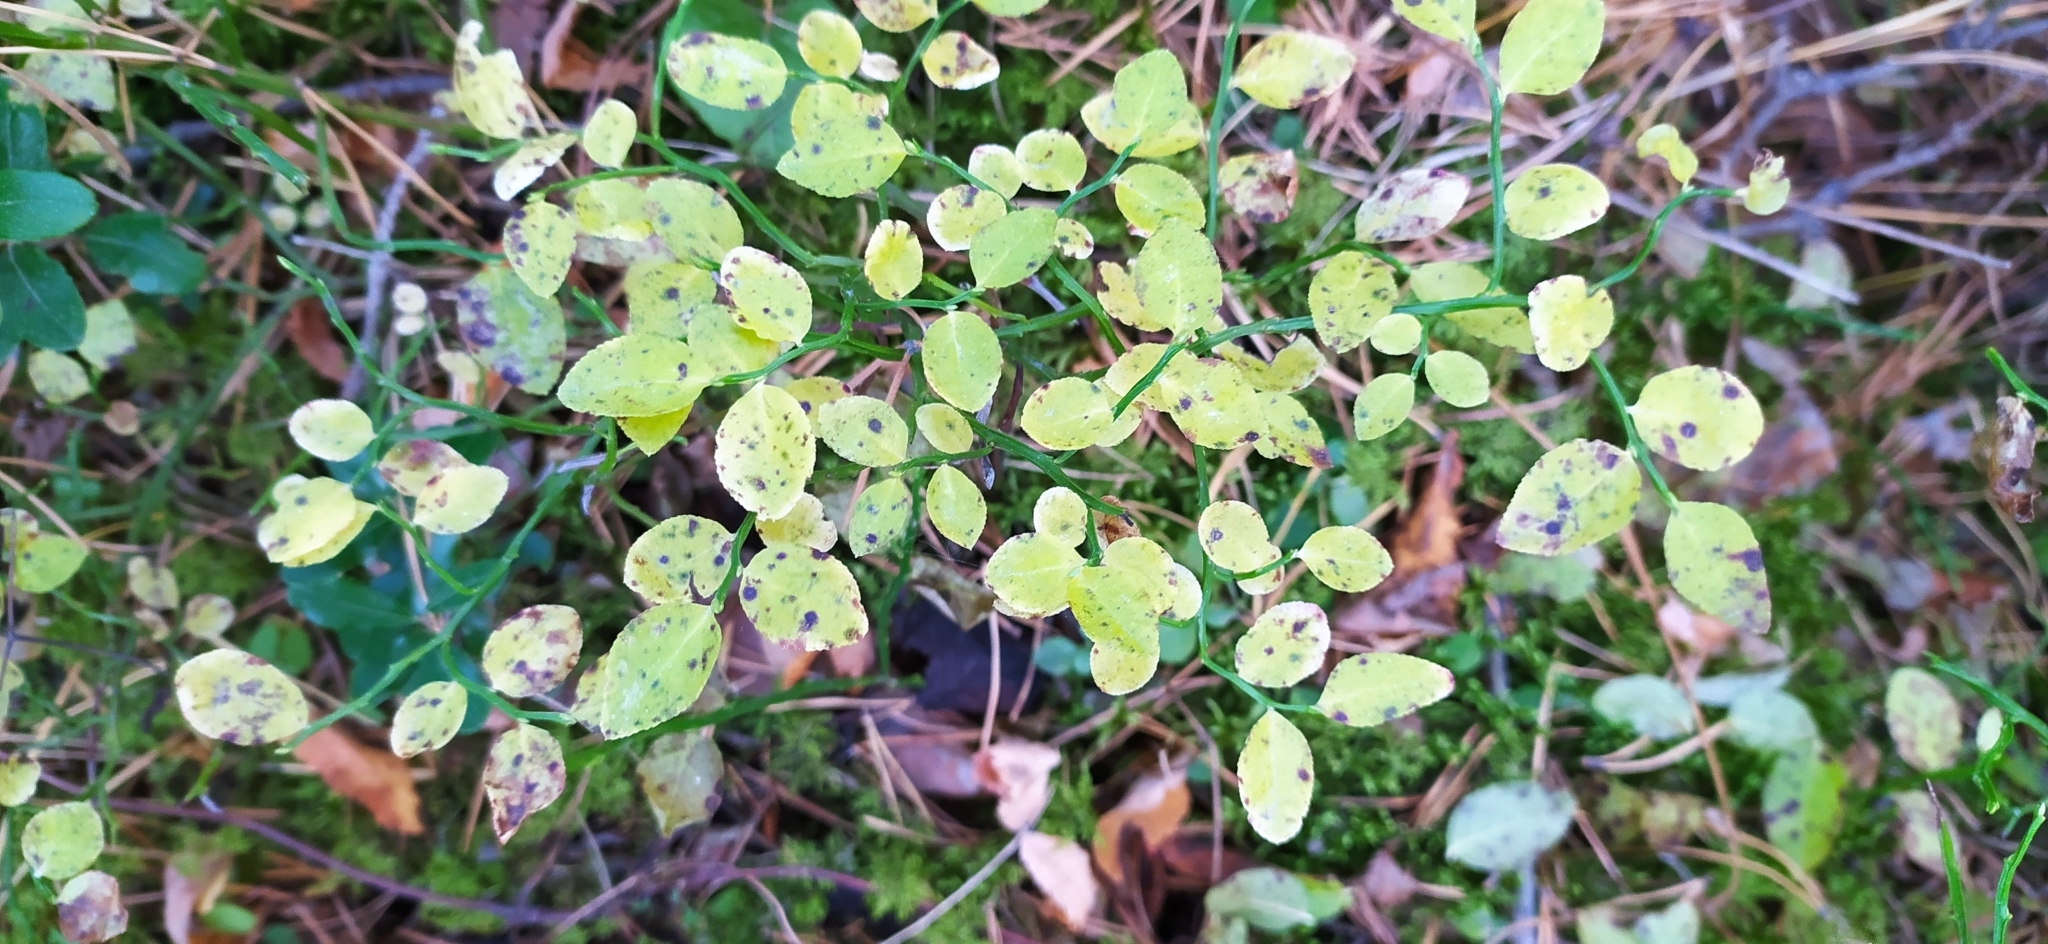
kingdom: Plantae
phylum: Tracheophyta
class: Magnoliopsida
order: Ericales
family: Ericaceae
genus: Vaccinium
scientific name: Vaccinium myrtillus
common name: Bilberry
